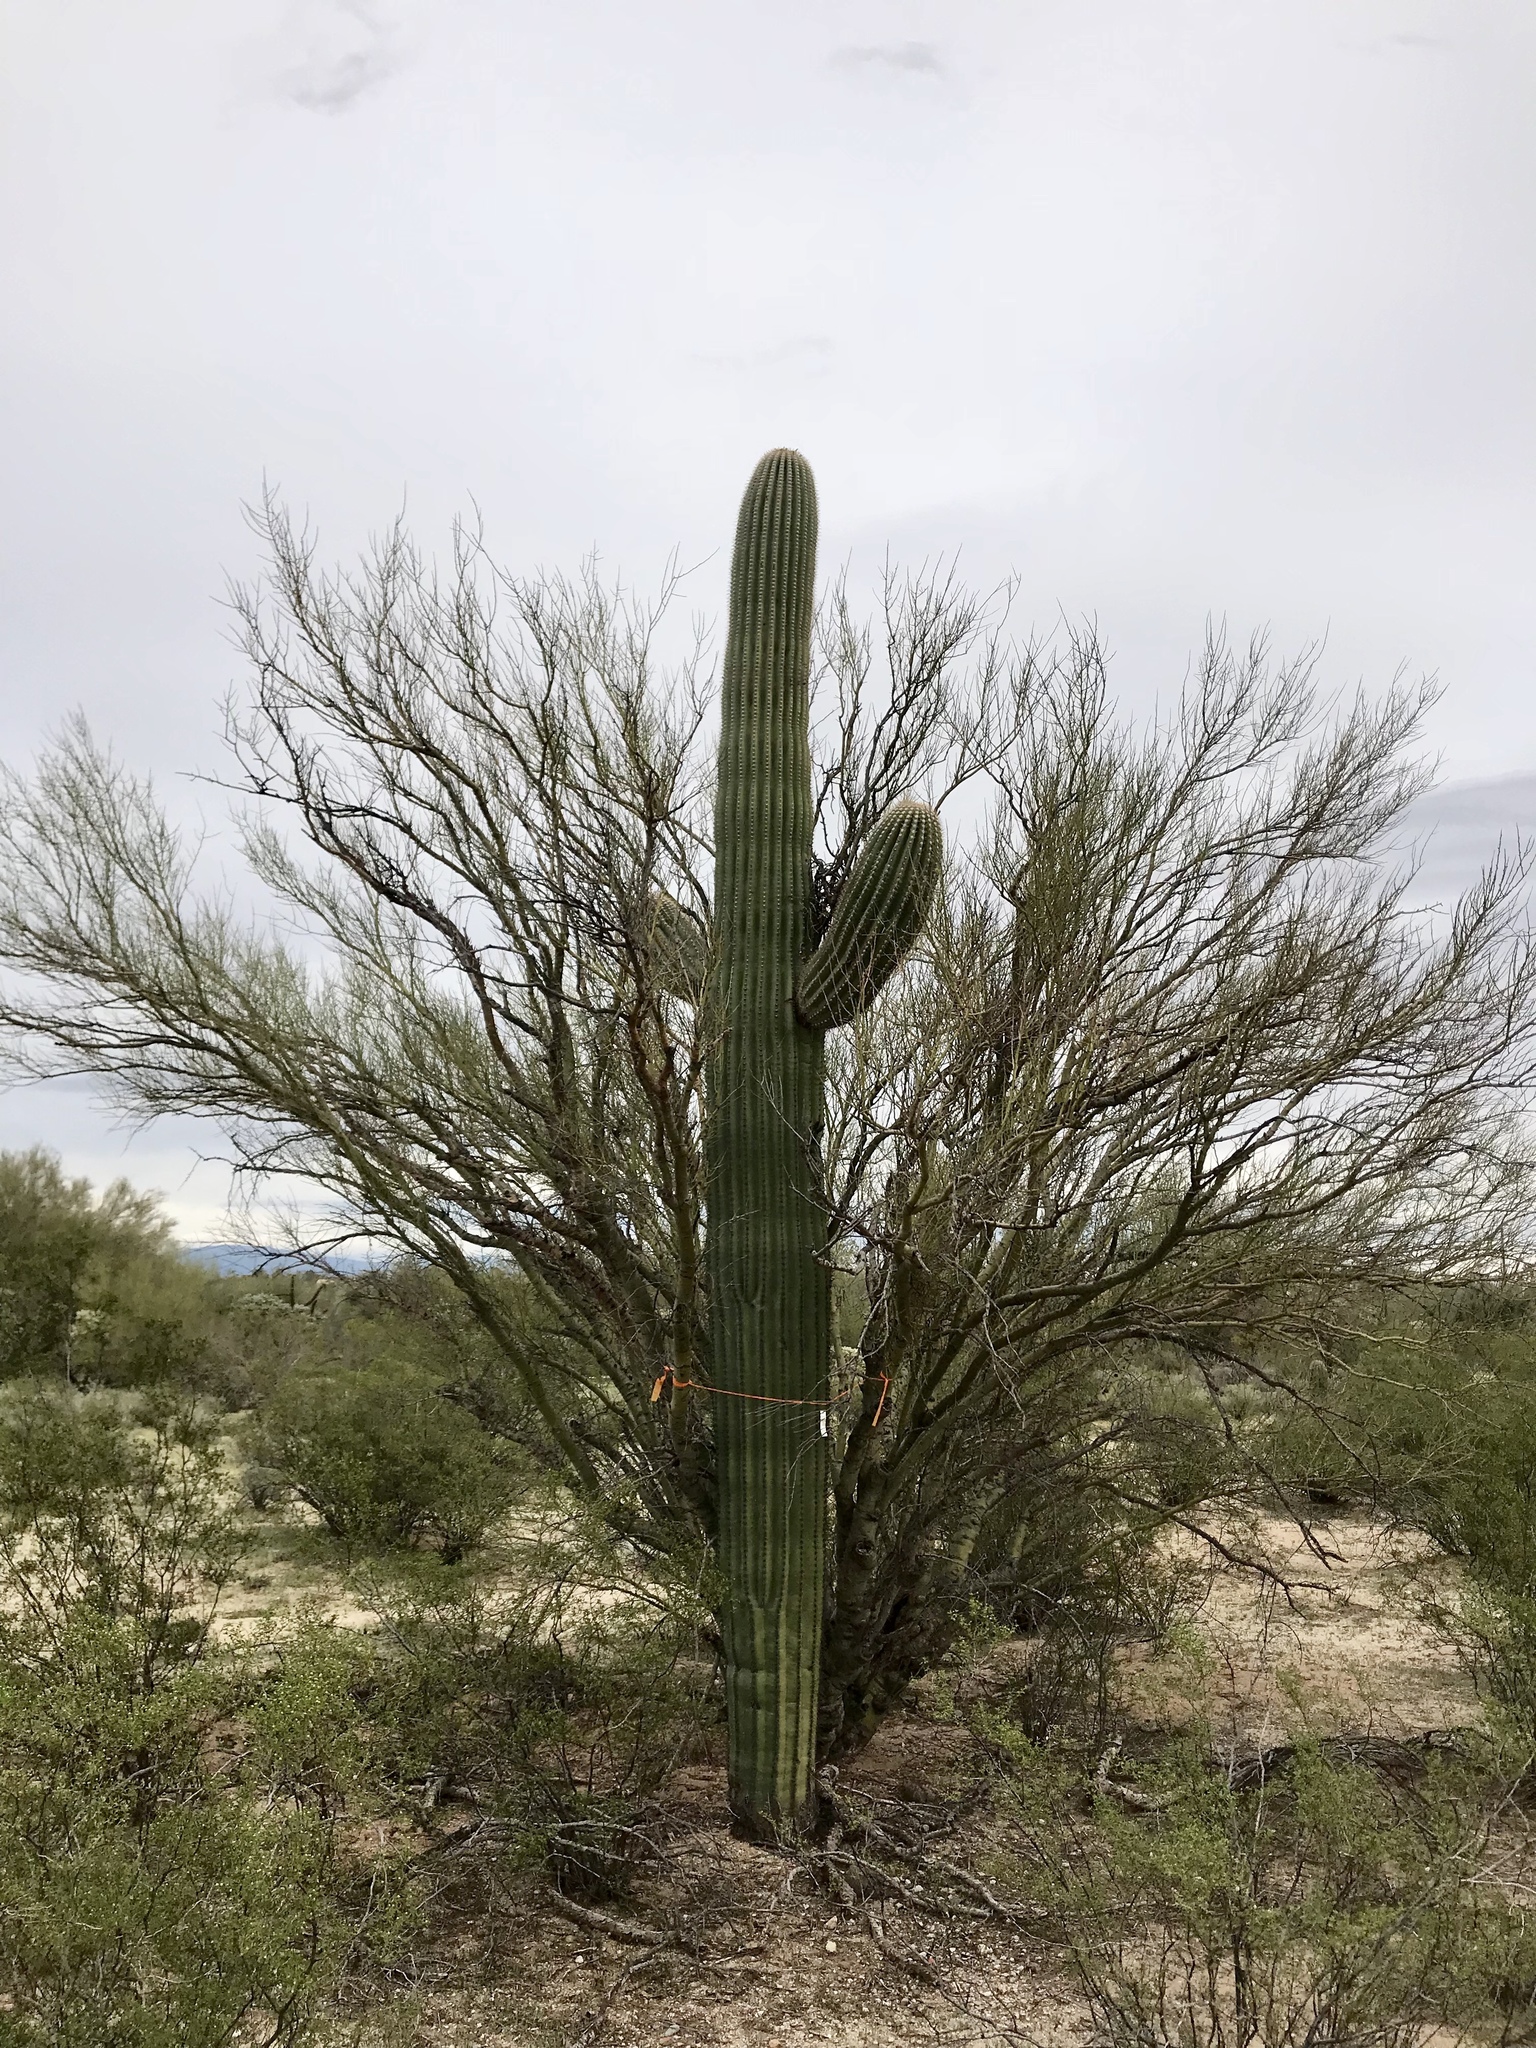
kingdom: Plantae
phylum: Tracheophyta
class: Magnoliopsida
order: Caryophyllales
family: Cactaceae
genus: Carnegiea
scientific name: Carnegiea gigantea
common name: Saguaro
